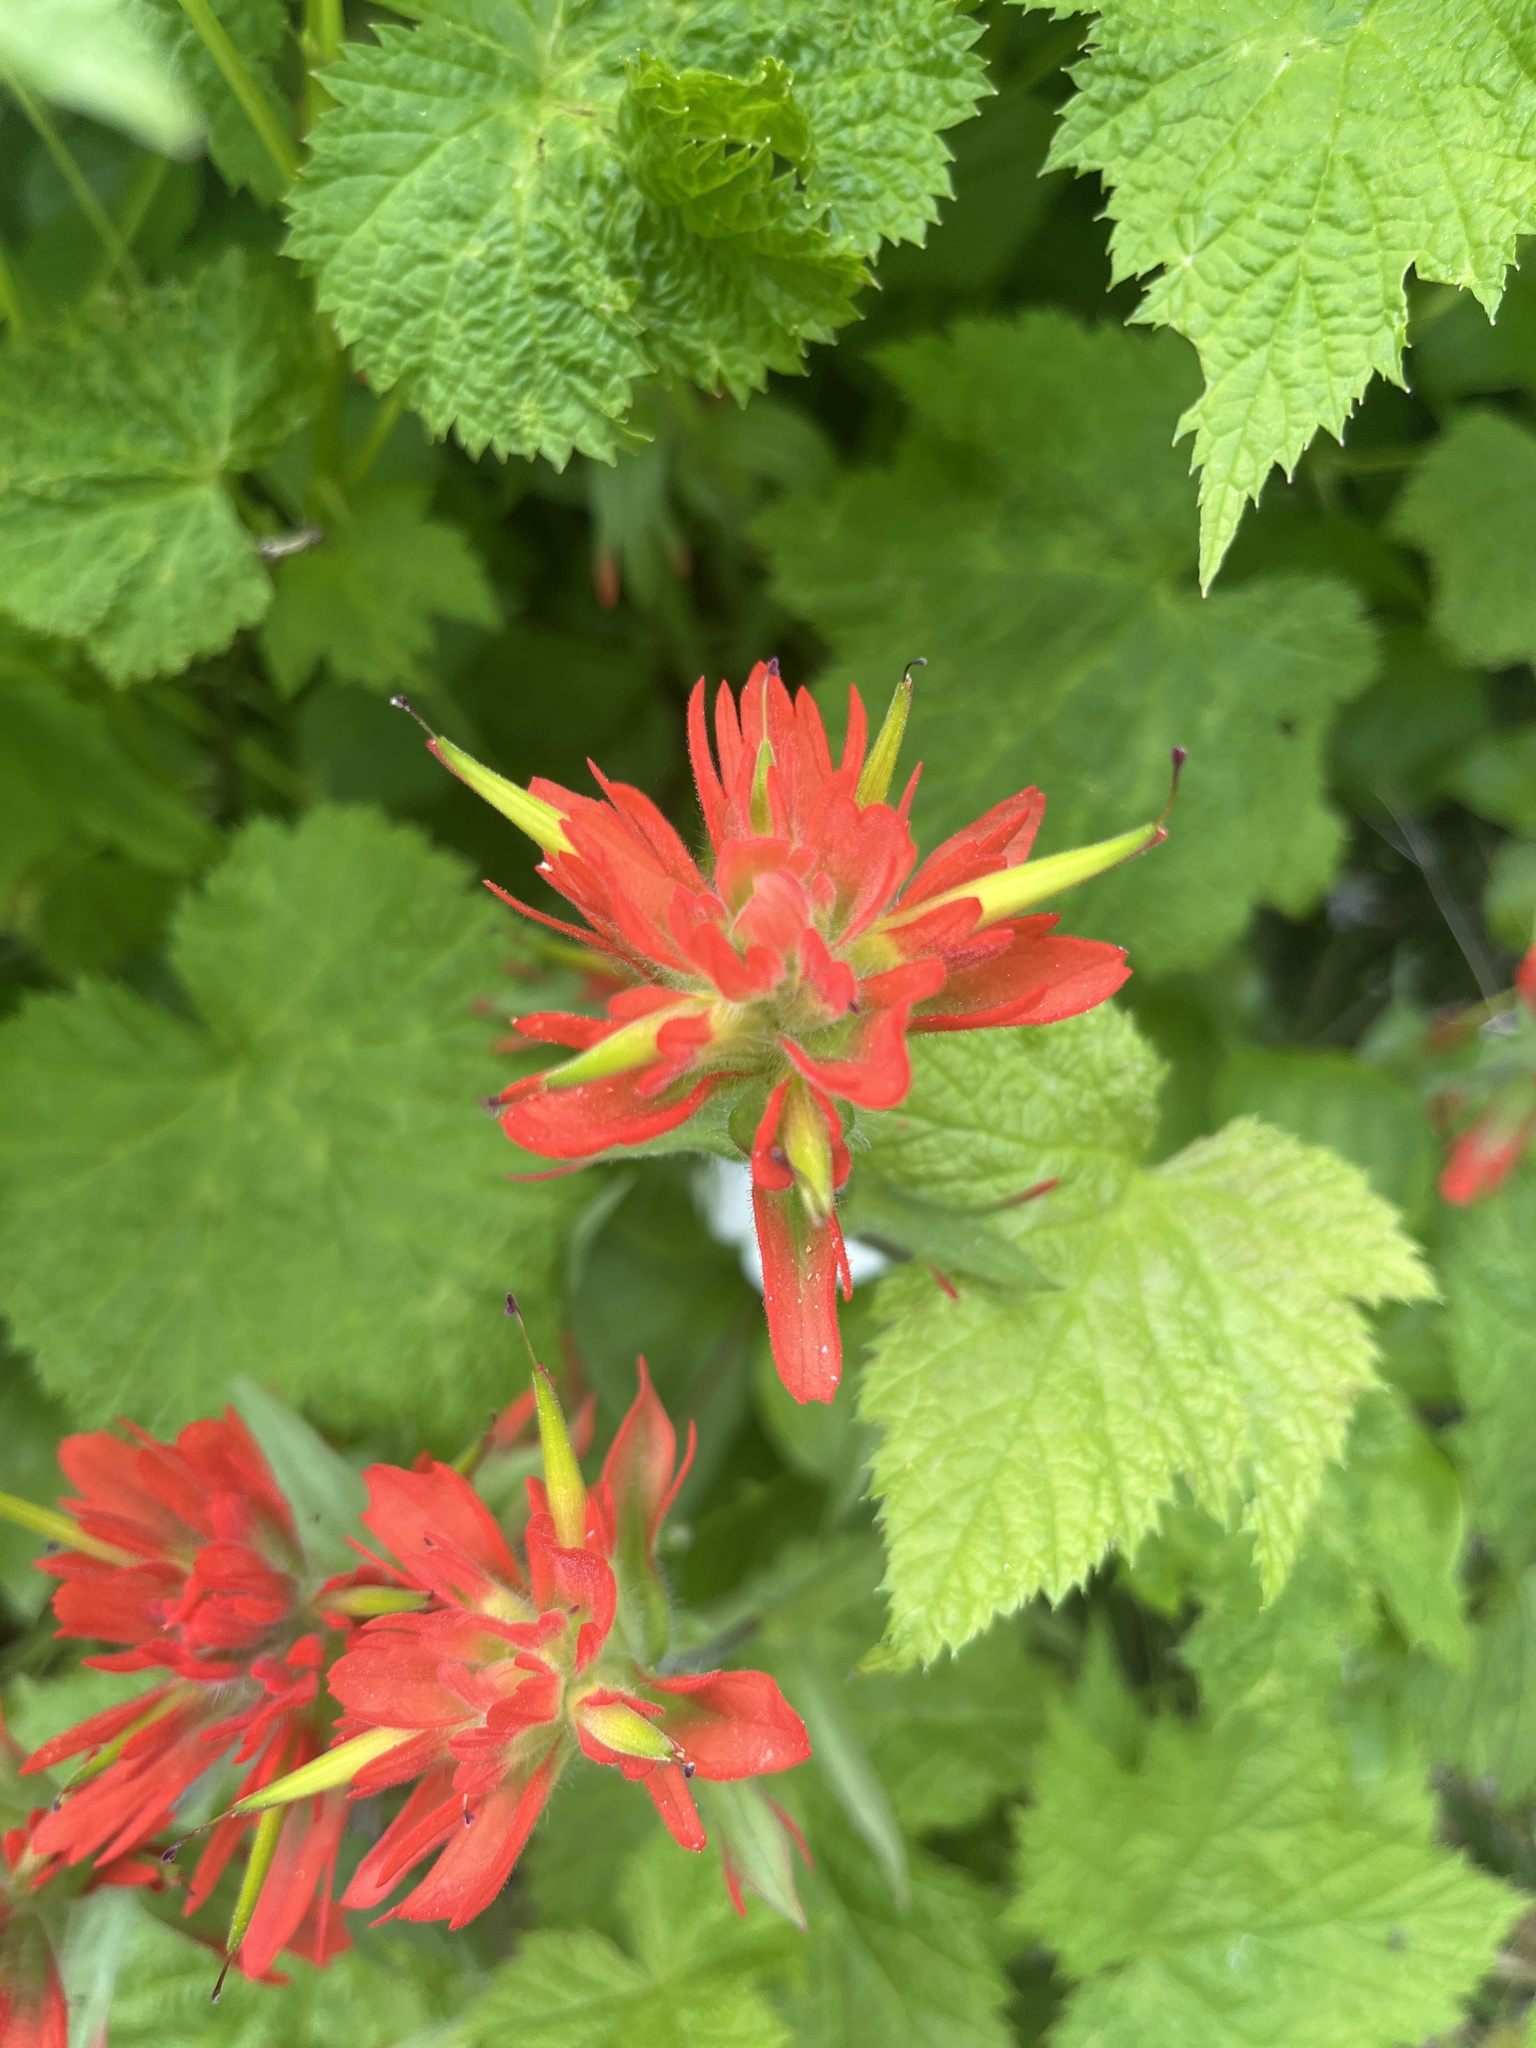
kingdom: Plantae
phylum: Tracheophyta
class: Magnoliopsida
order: Lamiales
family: Orobanchaceae
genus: Castilleja
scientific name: Castilleja miniata
